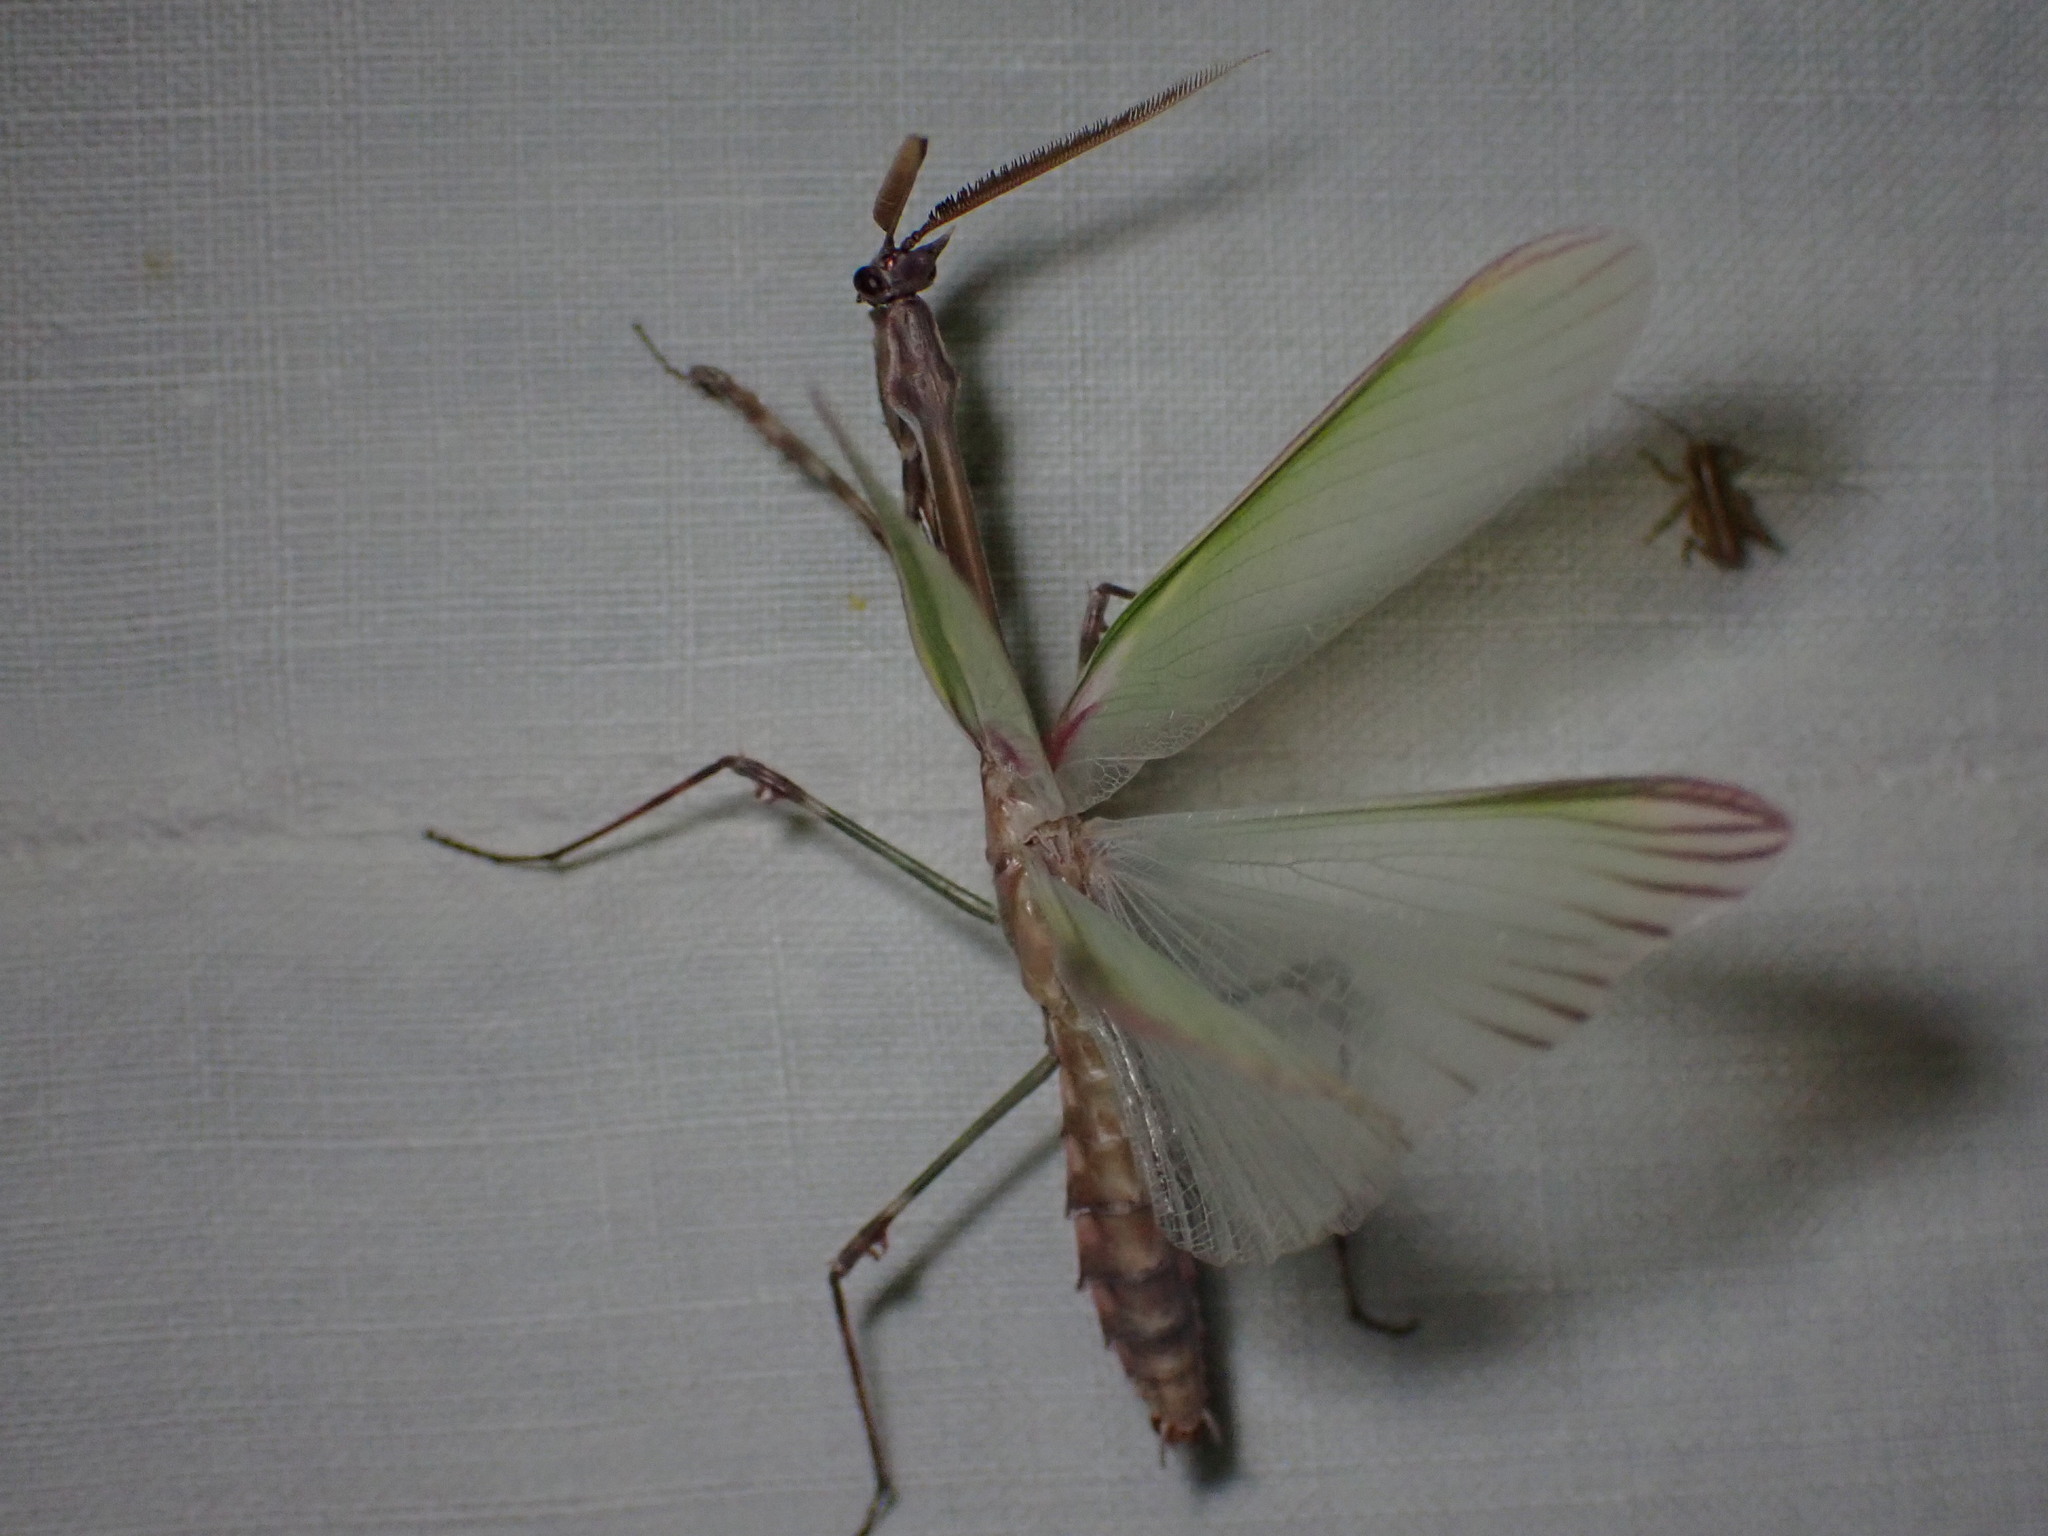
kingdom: Animalia
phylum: Arthropoda
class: Insecta
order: Mantodea
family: Empusidae
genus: Empusa
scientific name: Empusa pennata
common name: Conehead mantis
